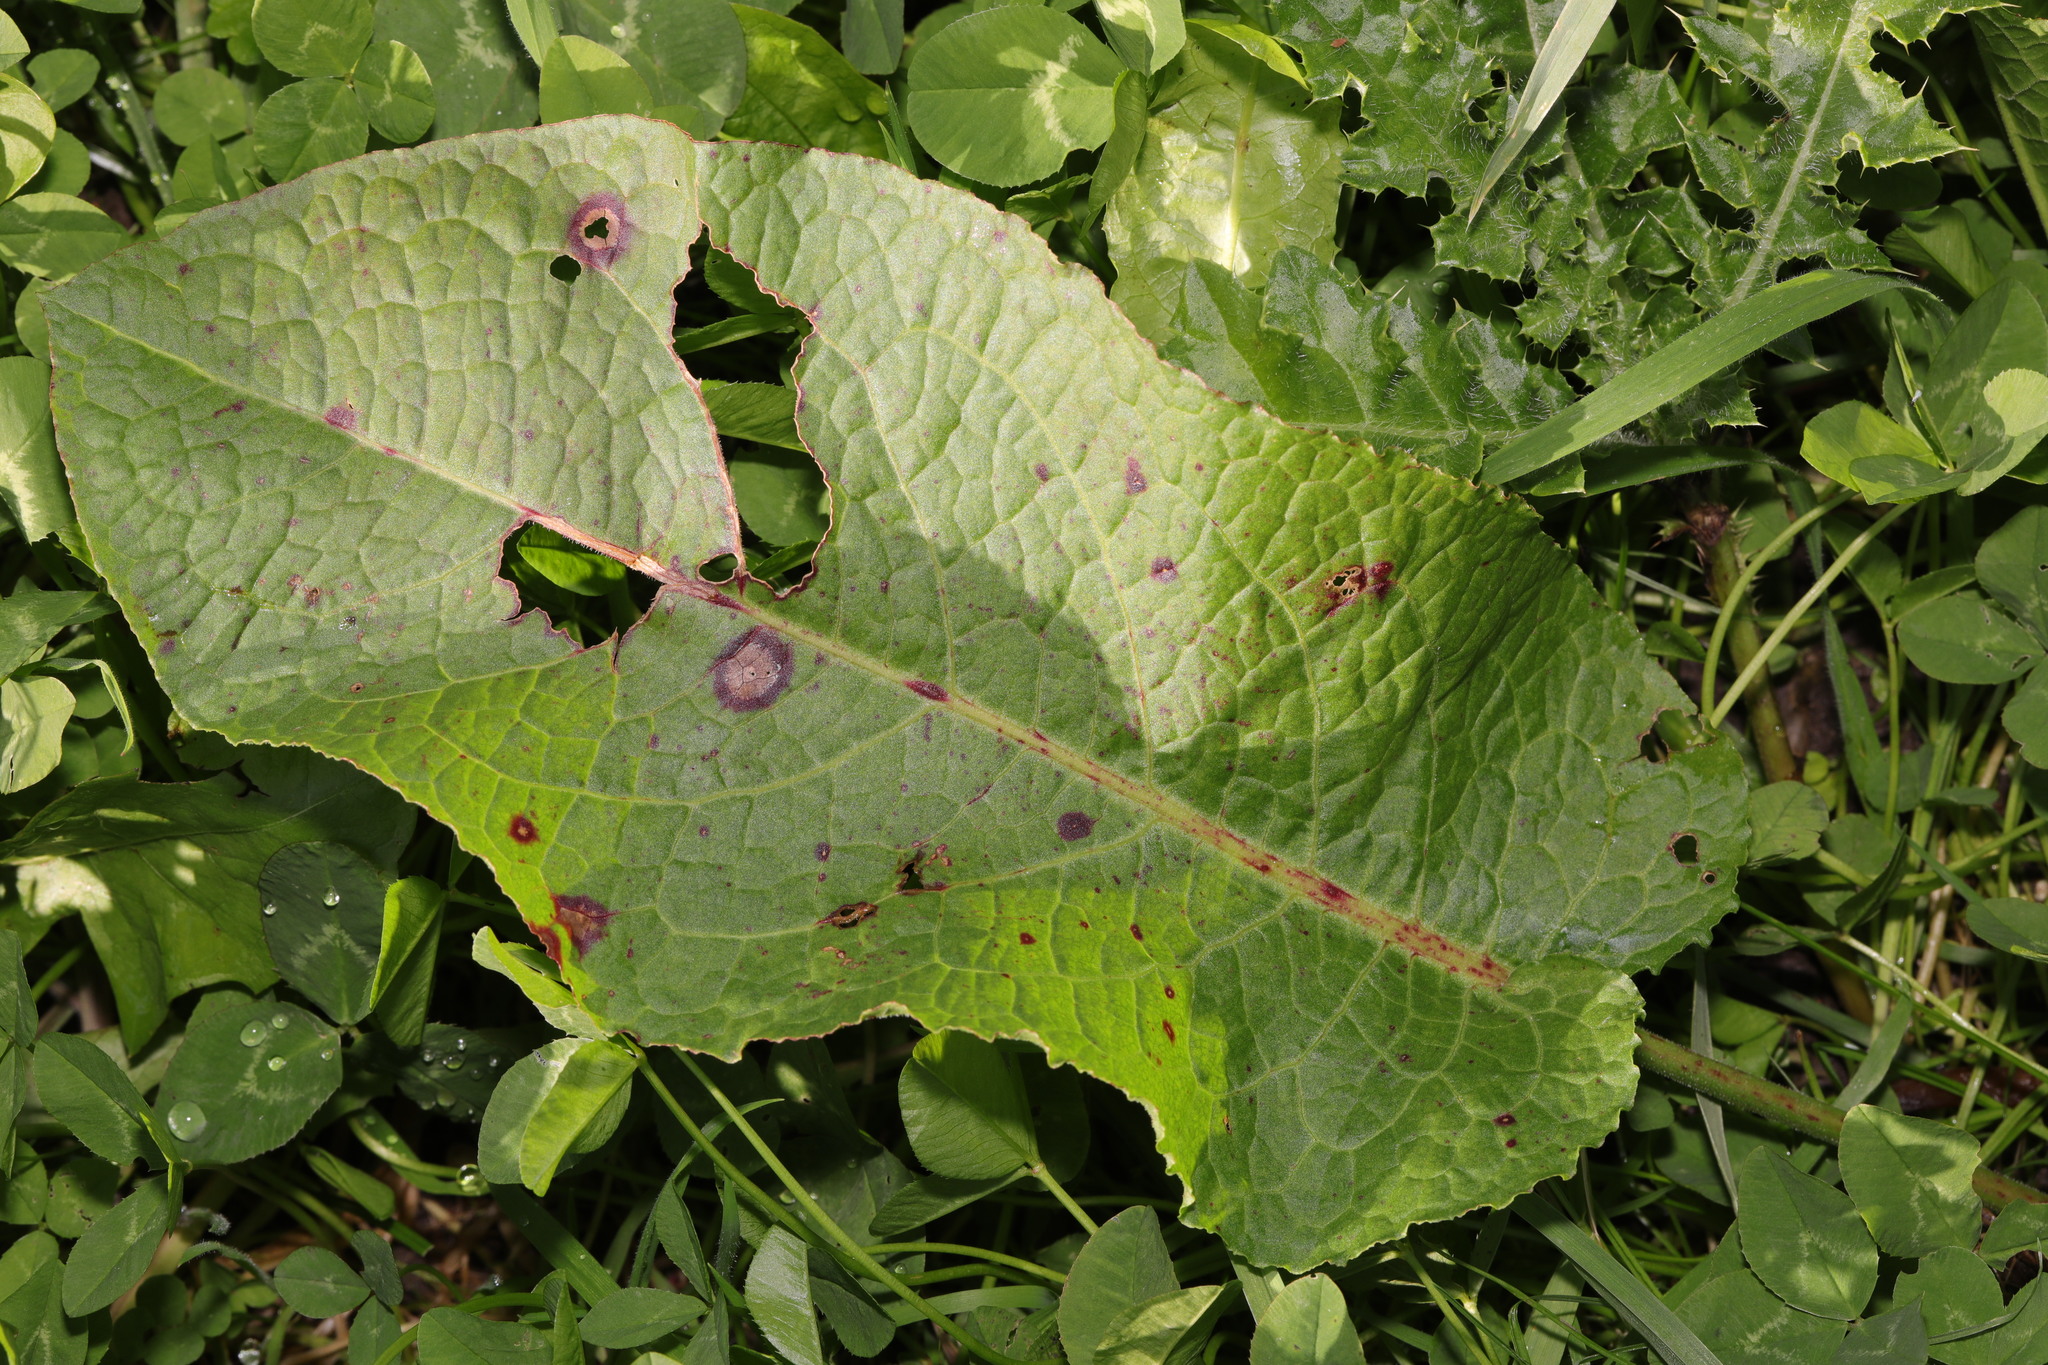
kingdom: Plantae
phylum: Tracheophyta
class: Magnoliopsida
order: Caryophyllales
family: Polygonaceae
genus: Rumex
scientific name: Rumex obtusifolius
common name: Bitter dock
